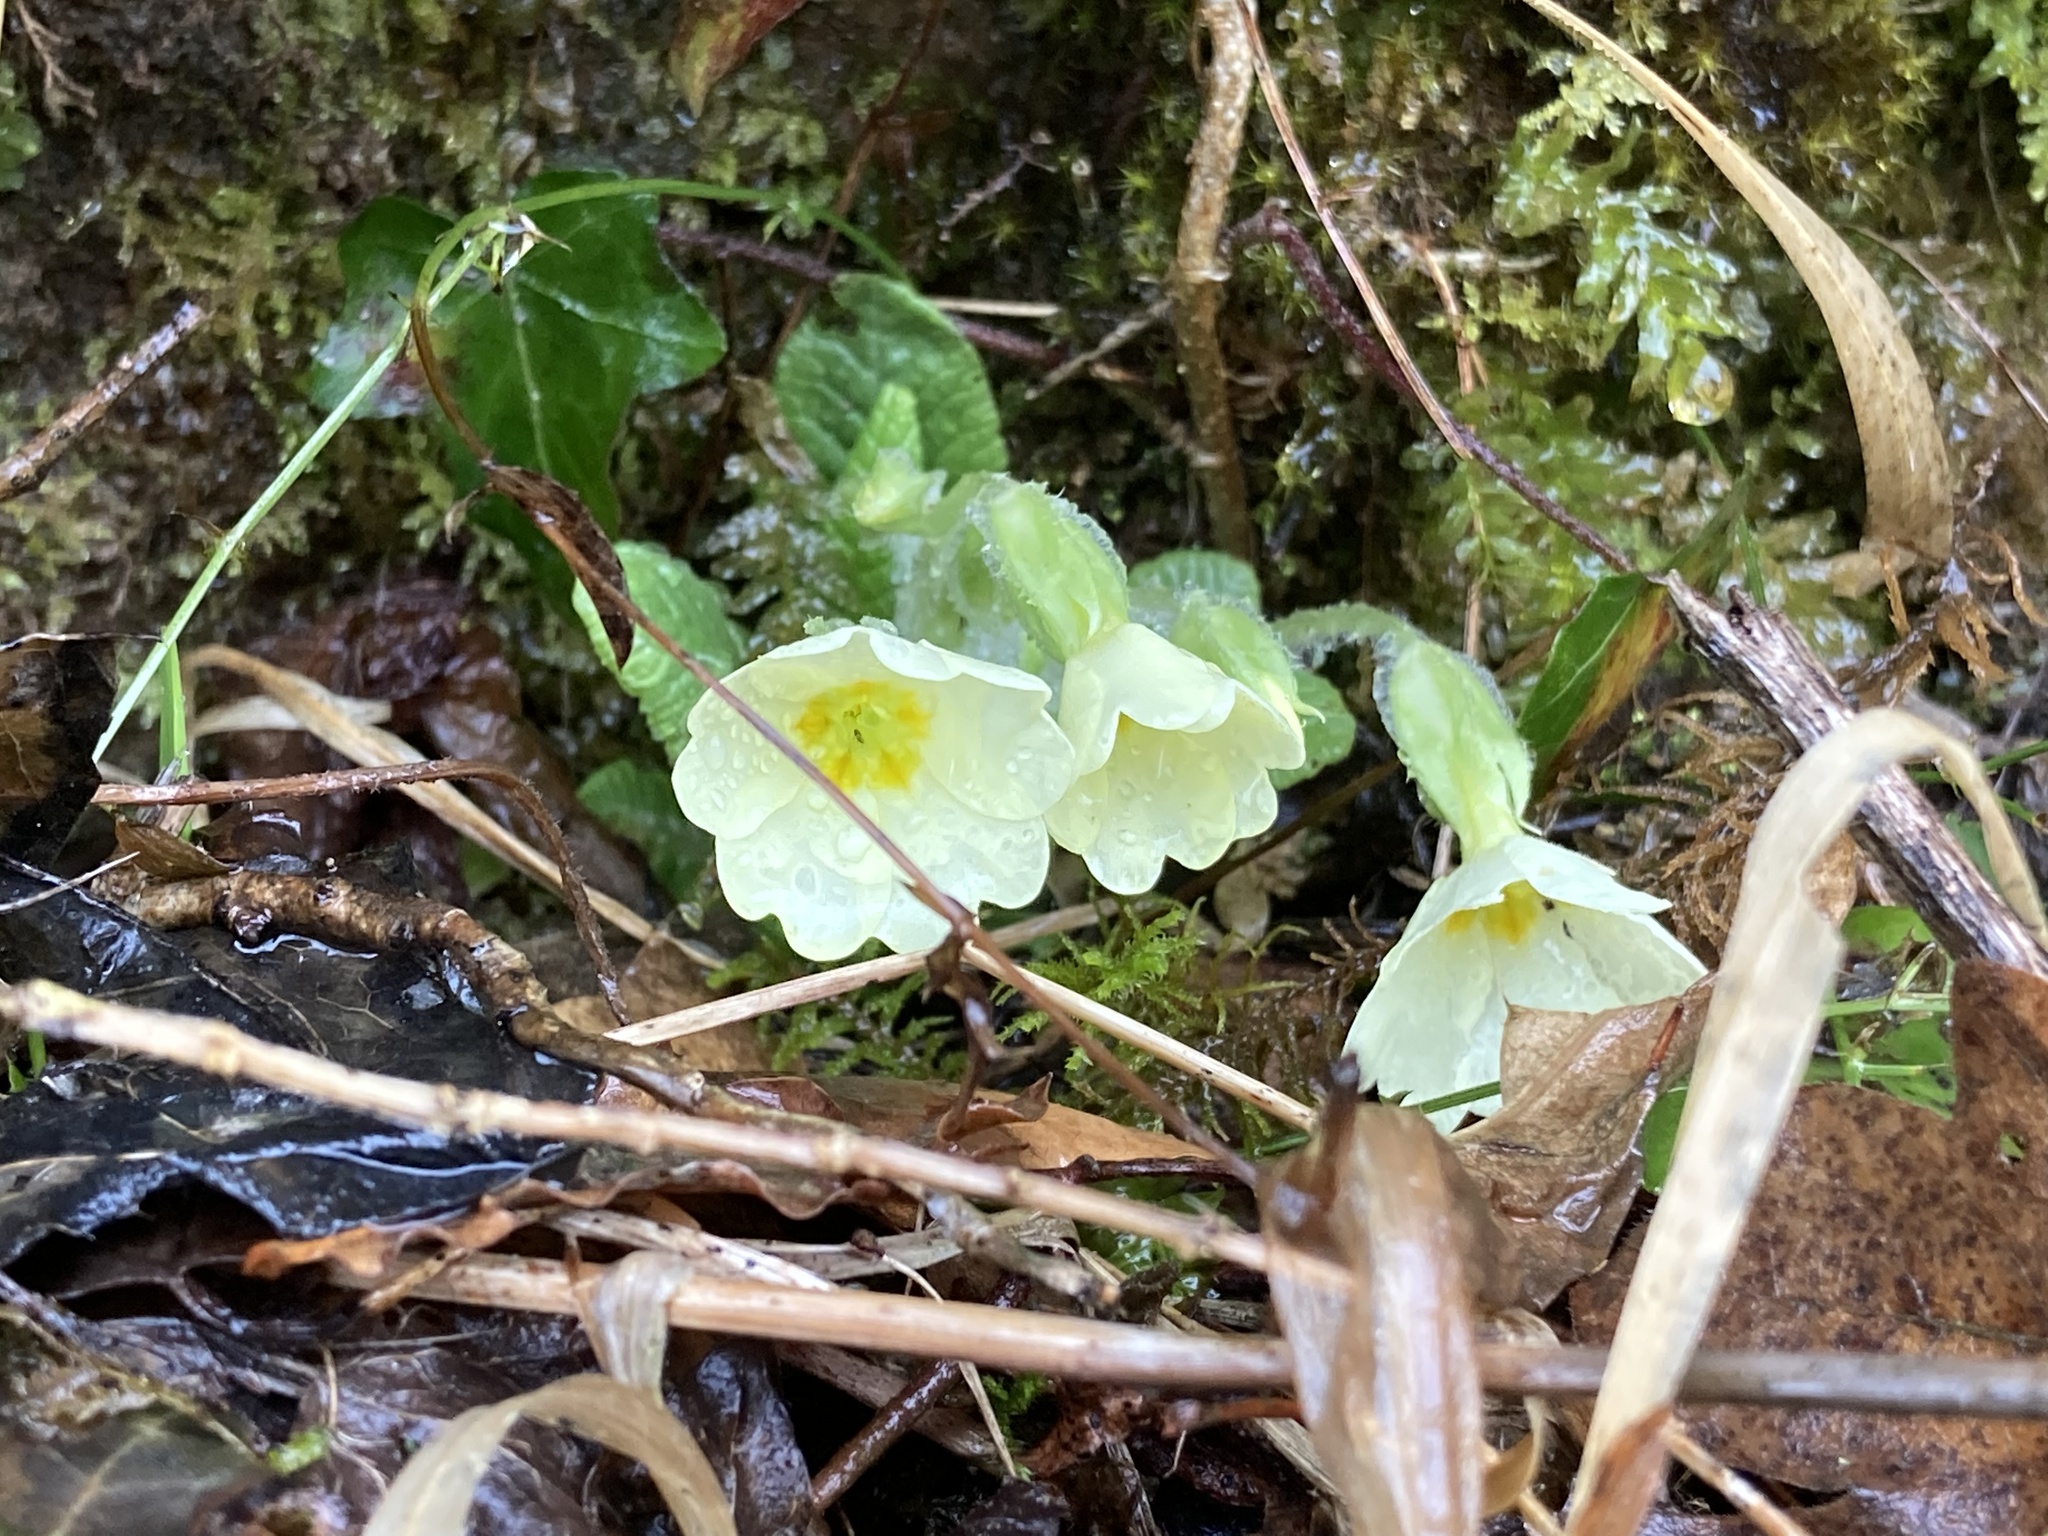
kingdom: Plantae
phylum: Tracheophyta
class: Magnoliopsida
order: Ericales
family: Primulaceae
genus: Primula
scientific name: Primula vulgaris
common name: Primrose
